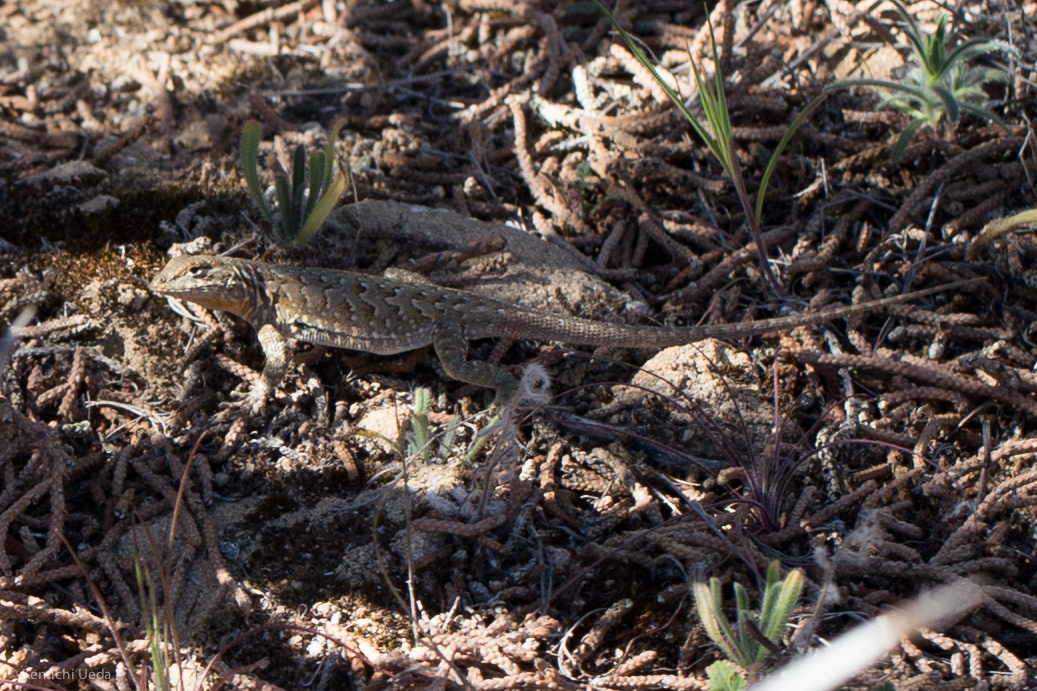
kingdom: Animalia
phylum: Chordata
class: Squamata
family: Phrynosomatidae
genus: Uta
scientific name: Uta stansburiana
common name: Side-blotched lizard
